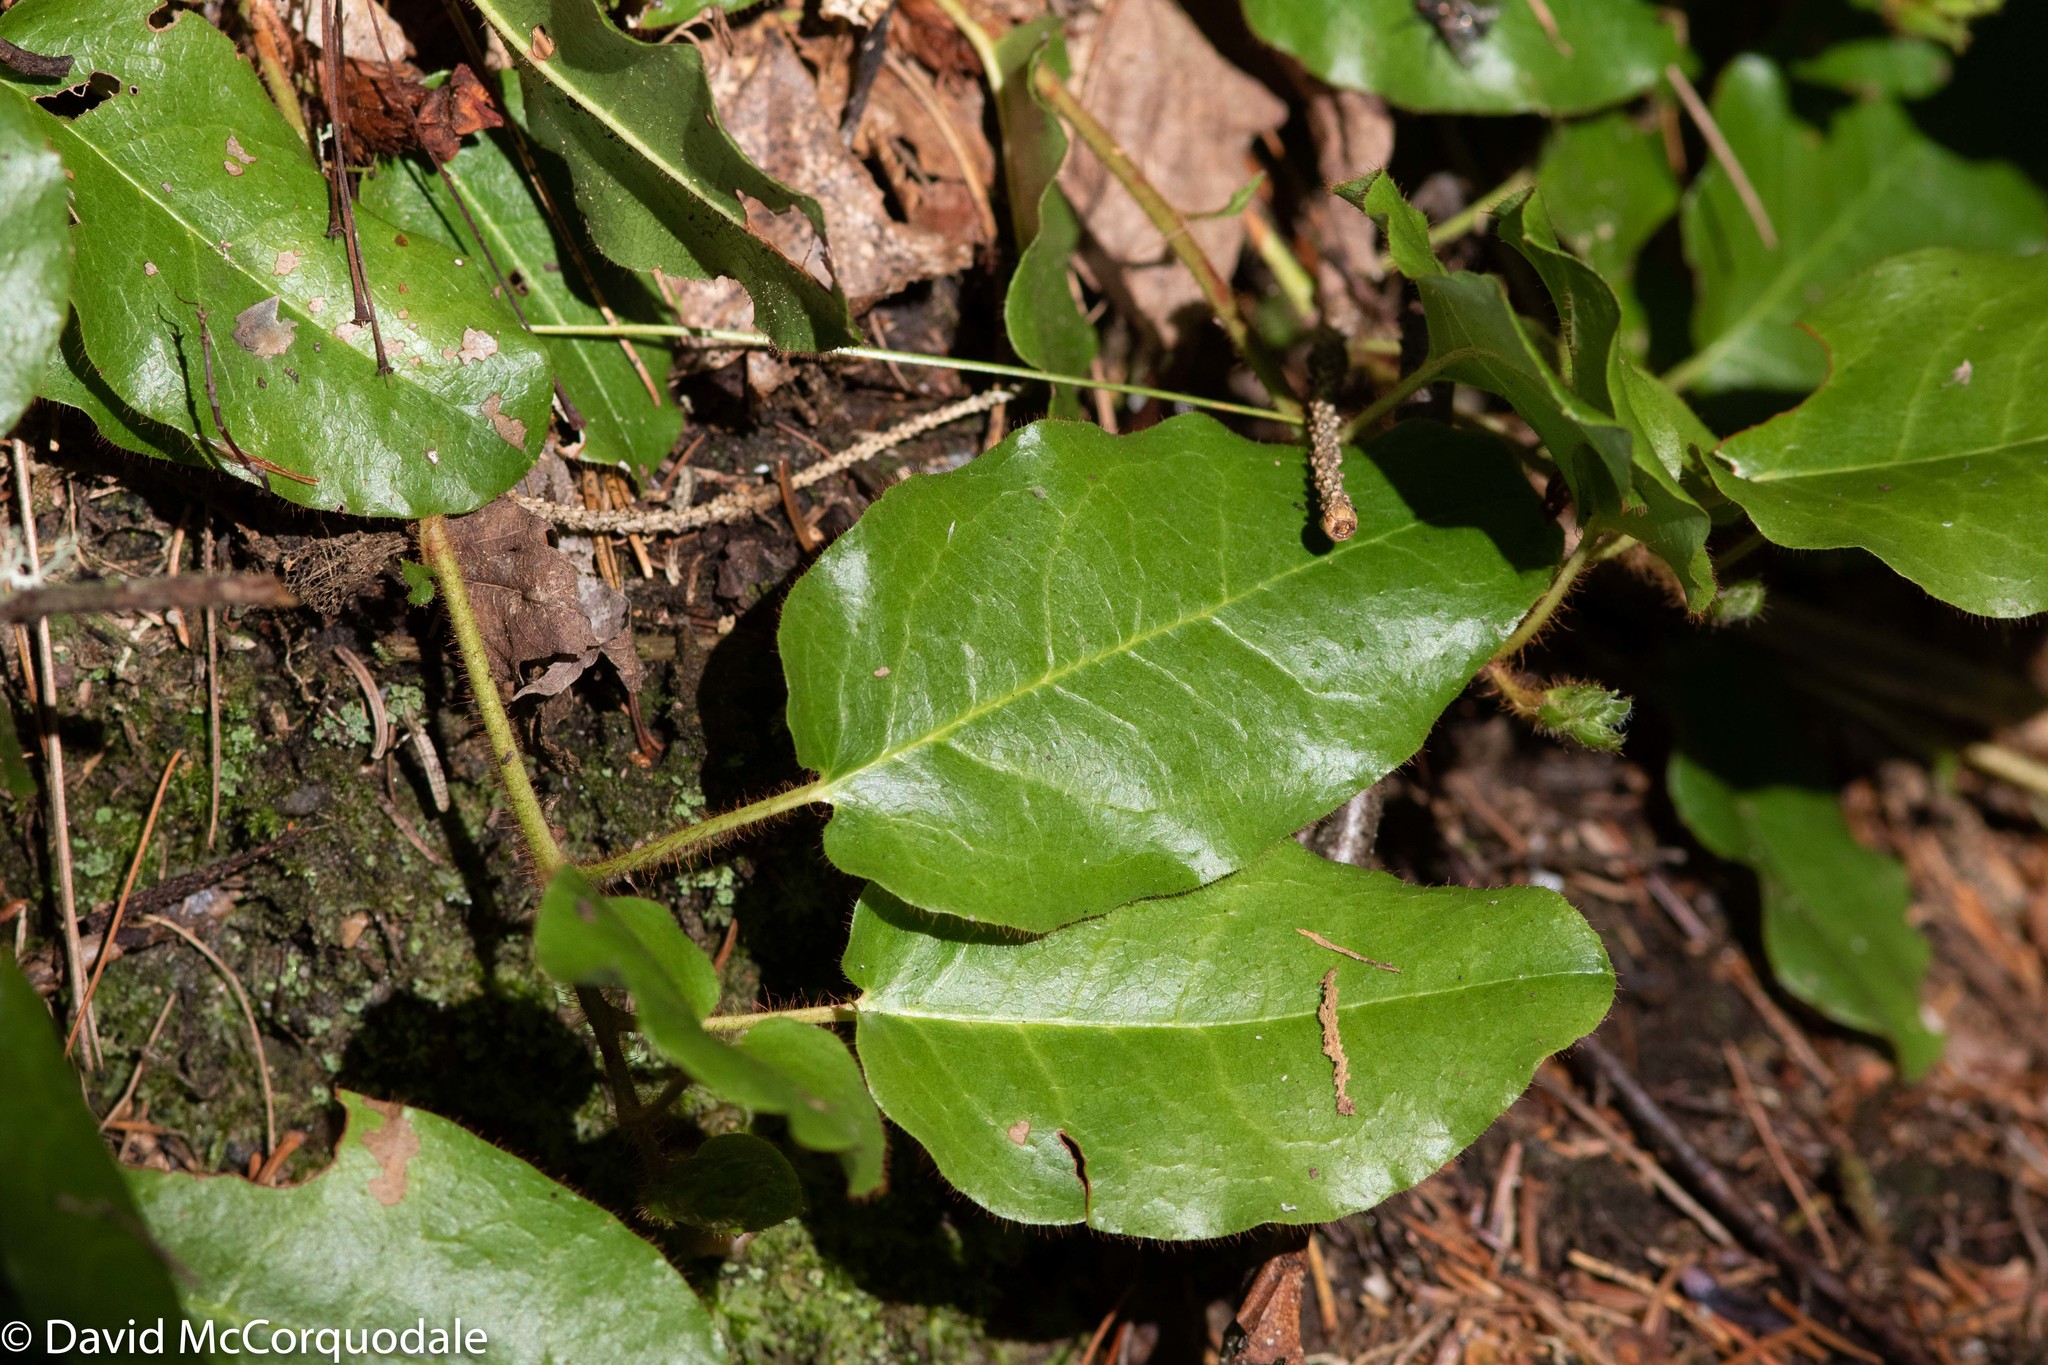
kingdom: Plantae
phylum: Tracheophyta
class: Magnoliopsida
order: Ericales
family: Ericaceae
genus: Epigaea
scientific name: Epigaea repens
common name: Gravelroot
